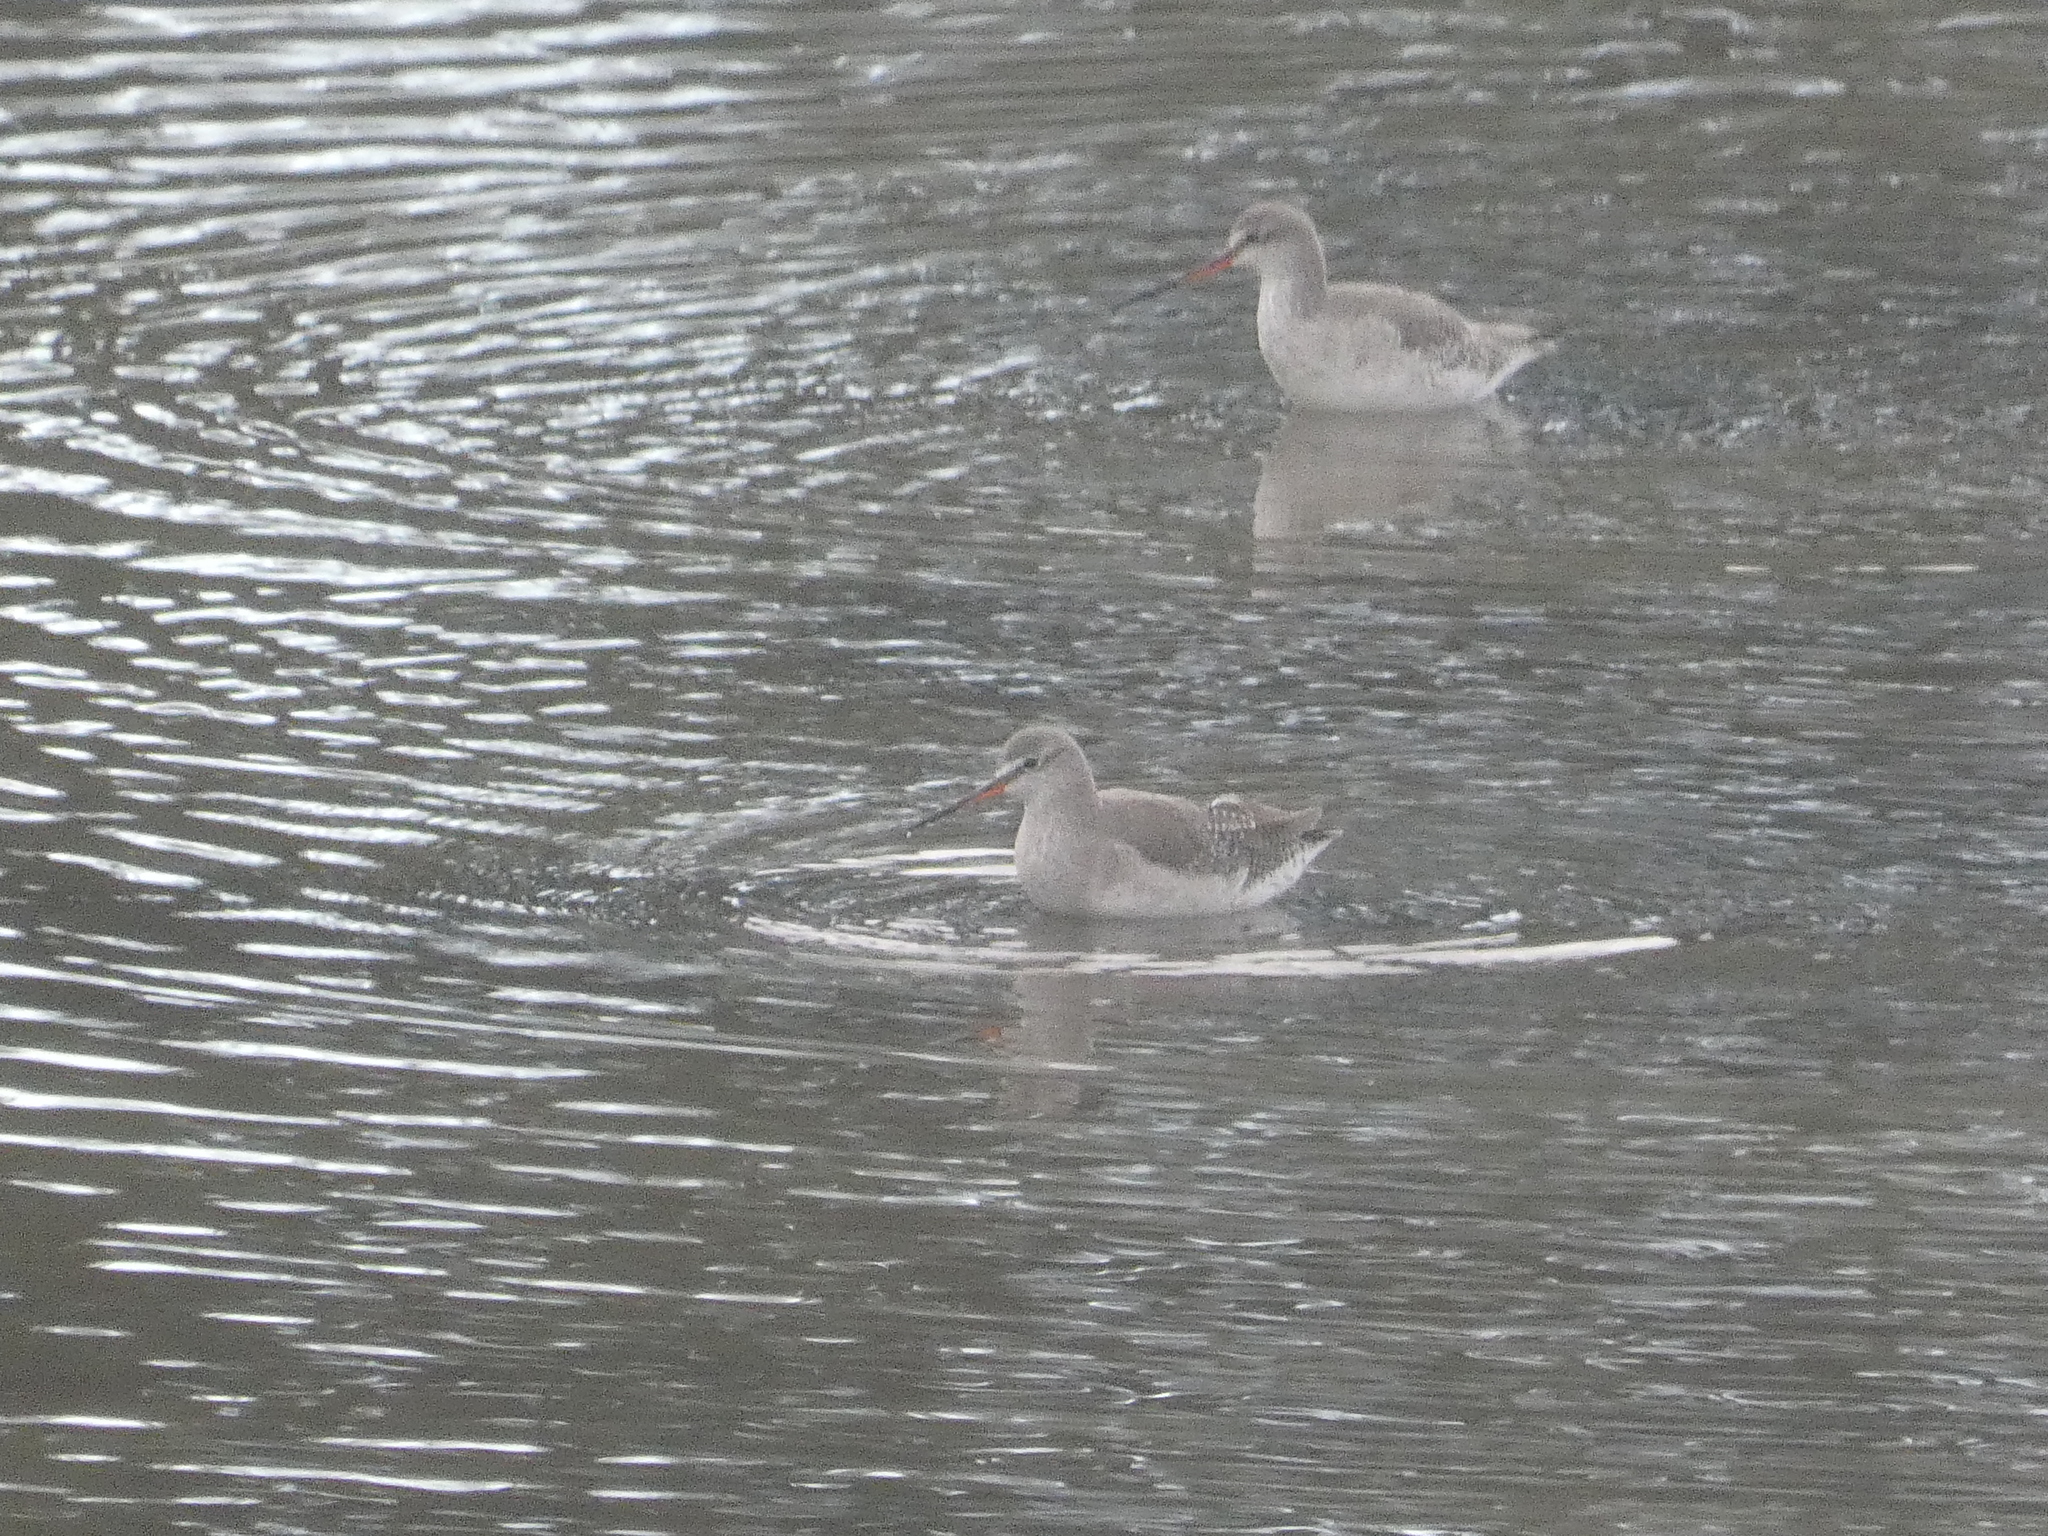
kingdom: Animalia
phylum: Chordata
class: Aves
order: Charadriiformes
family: Scolopacidae
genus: Tringa
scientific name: Tringa erythropus
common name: Spotted redshank
